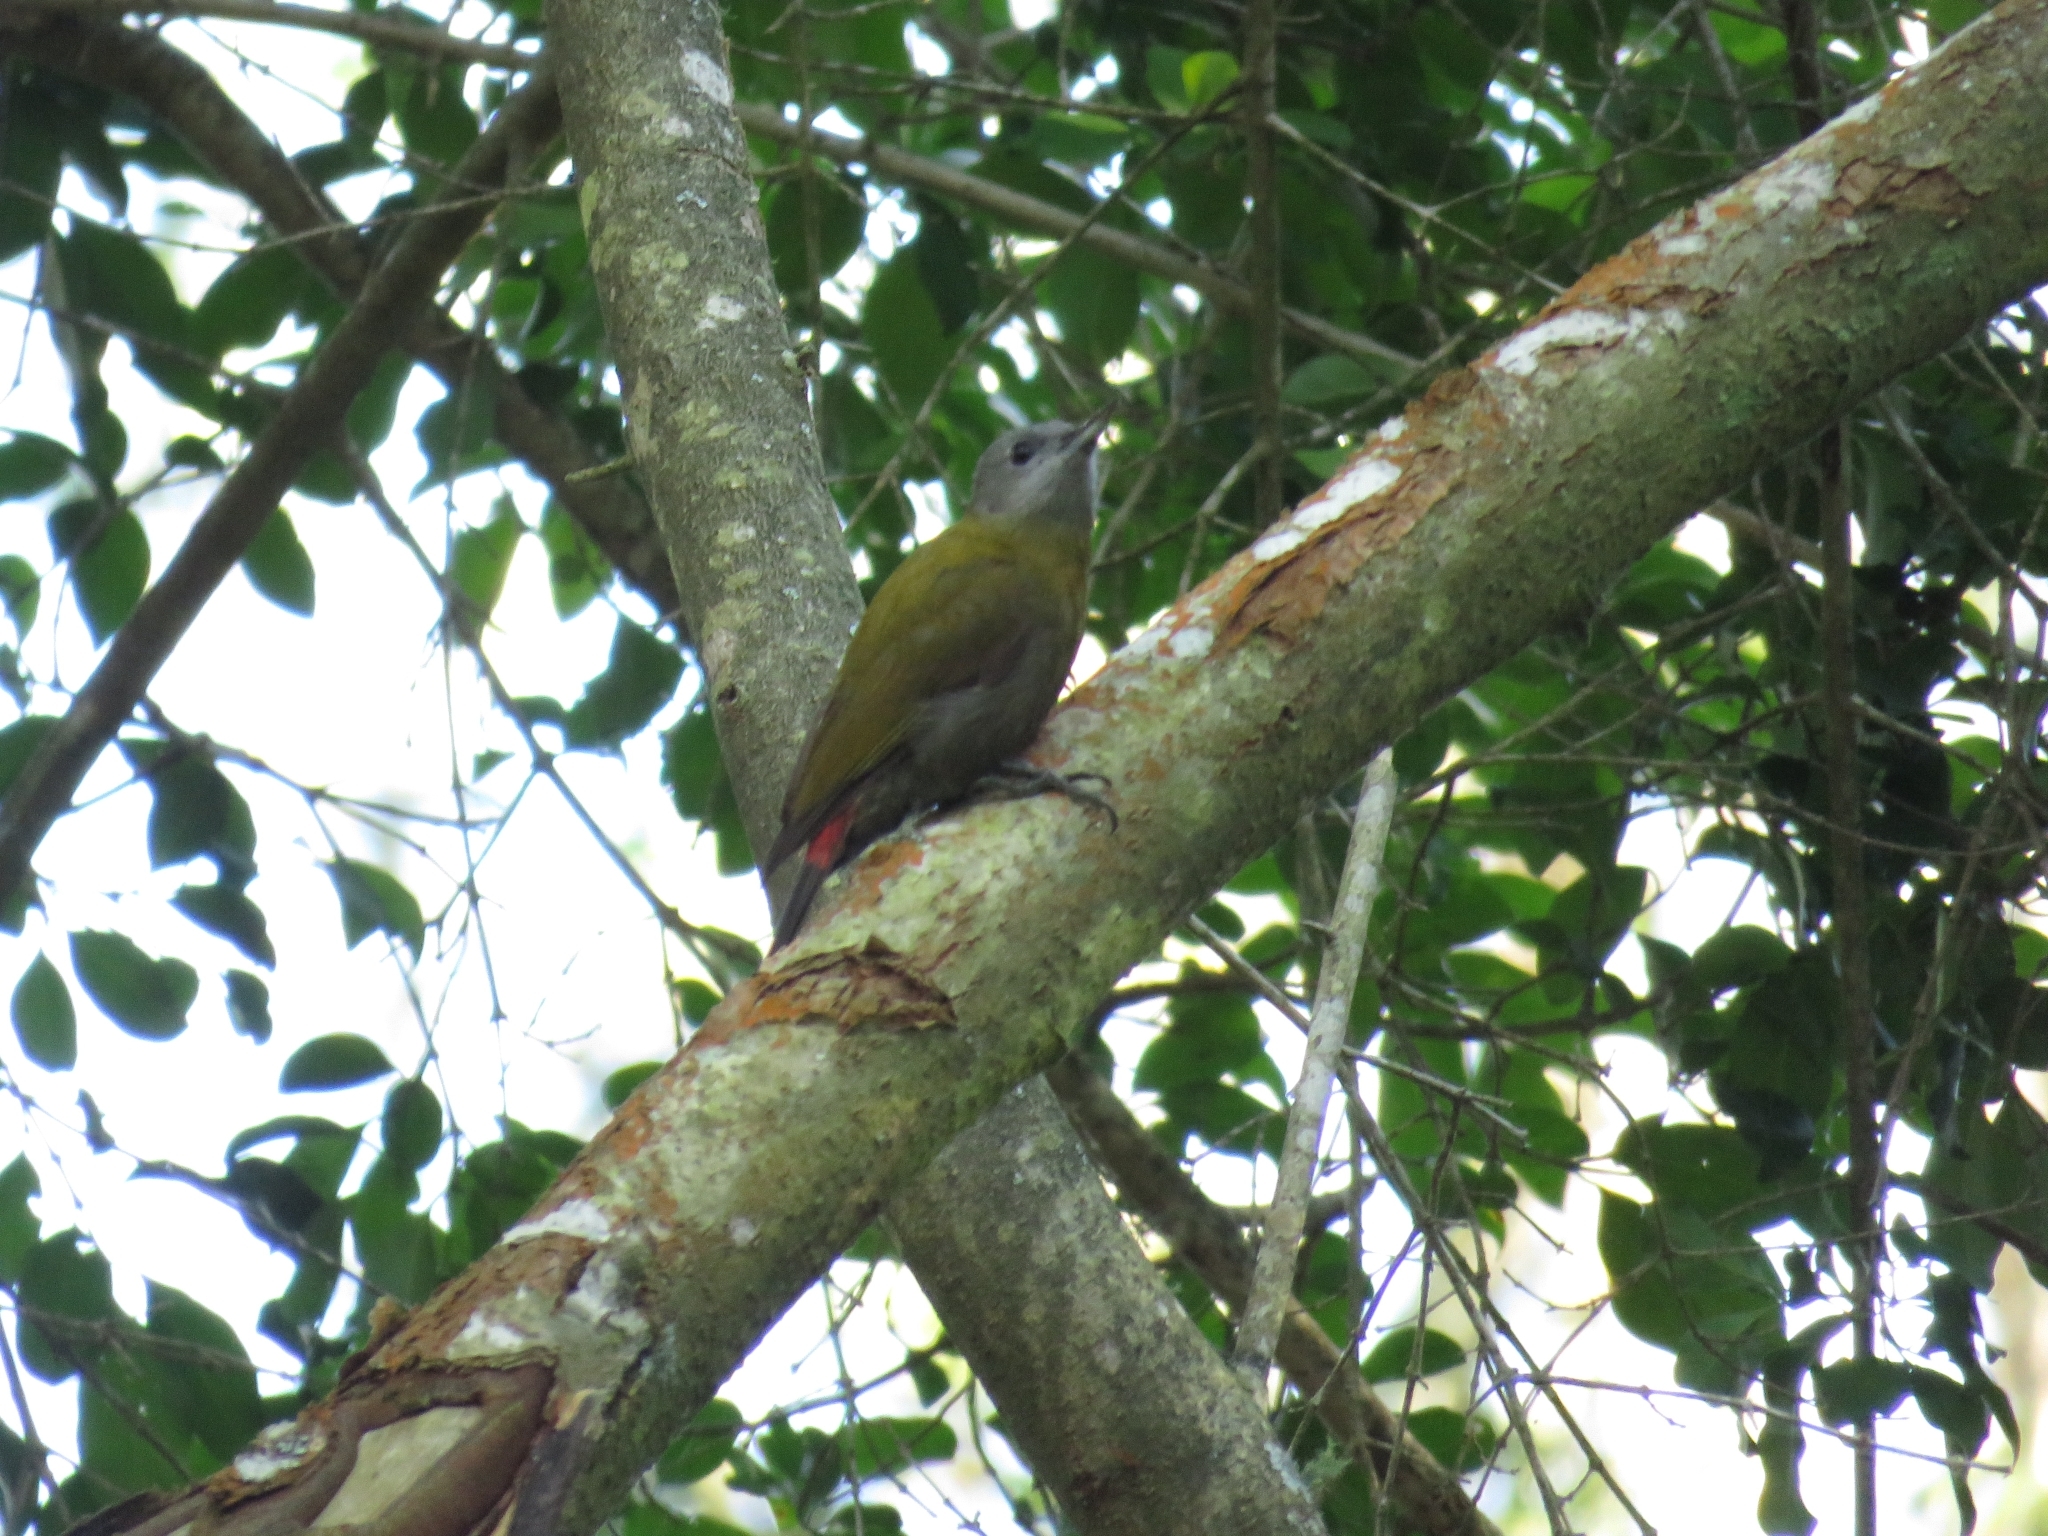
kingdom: Animalia
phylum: Chordata
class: Aves
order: Piciformes
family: Picidae
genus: Dendropicos
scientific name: Dendropicos griseocephalus
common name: Olive woodpecker
